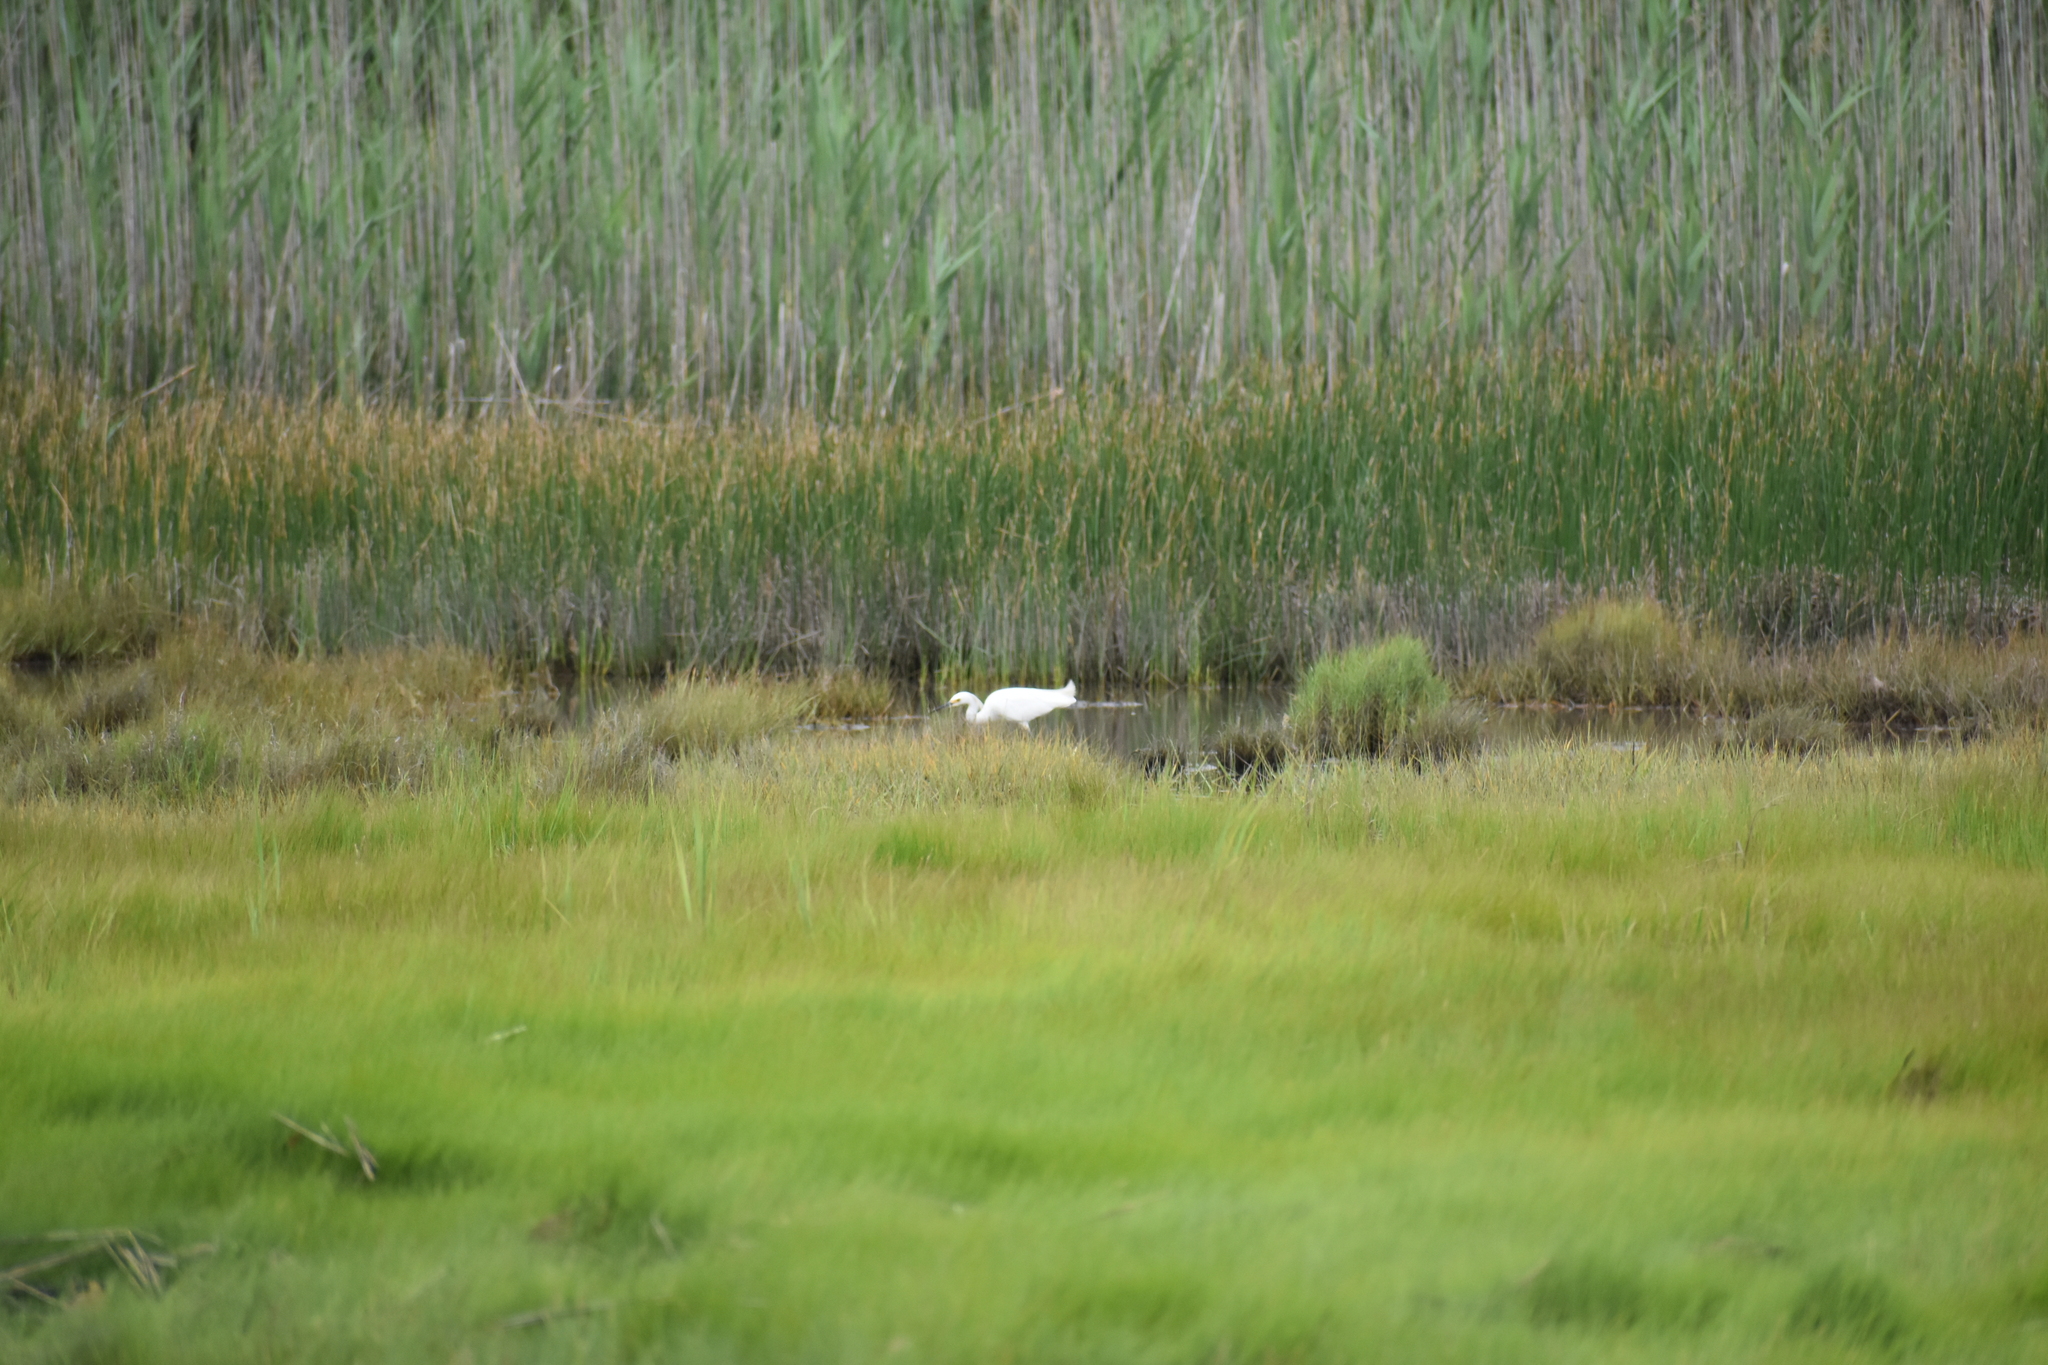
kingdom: Animalia
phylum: Chordata
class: Aves
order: Pelecaniformes
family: Ardeidae
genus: Egretta
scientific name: Egretta thula
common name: Snowy egret
